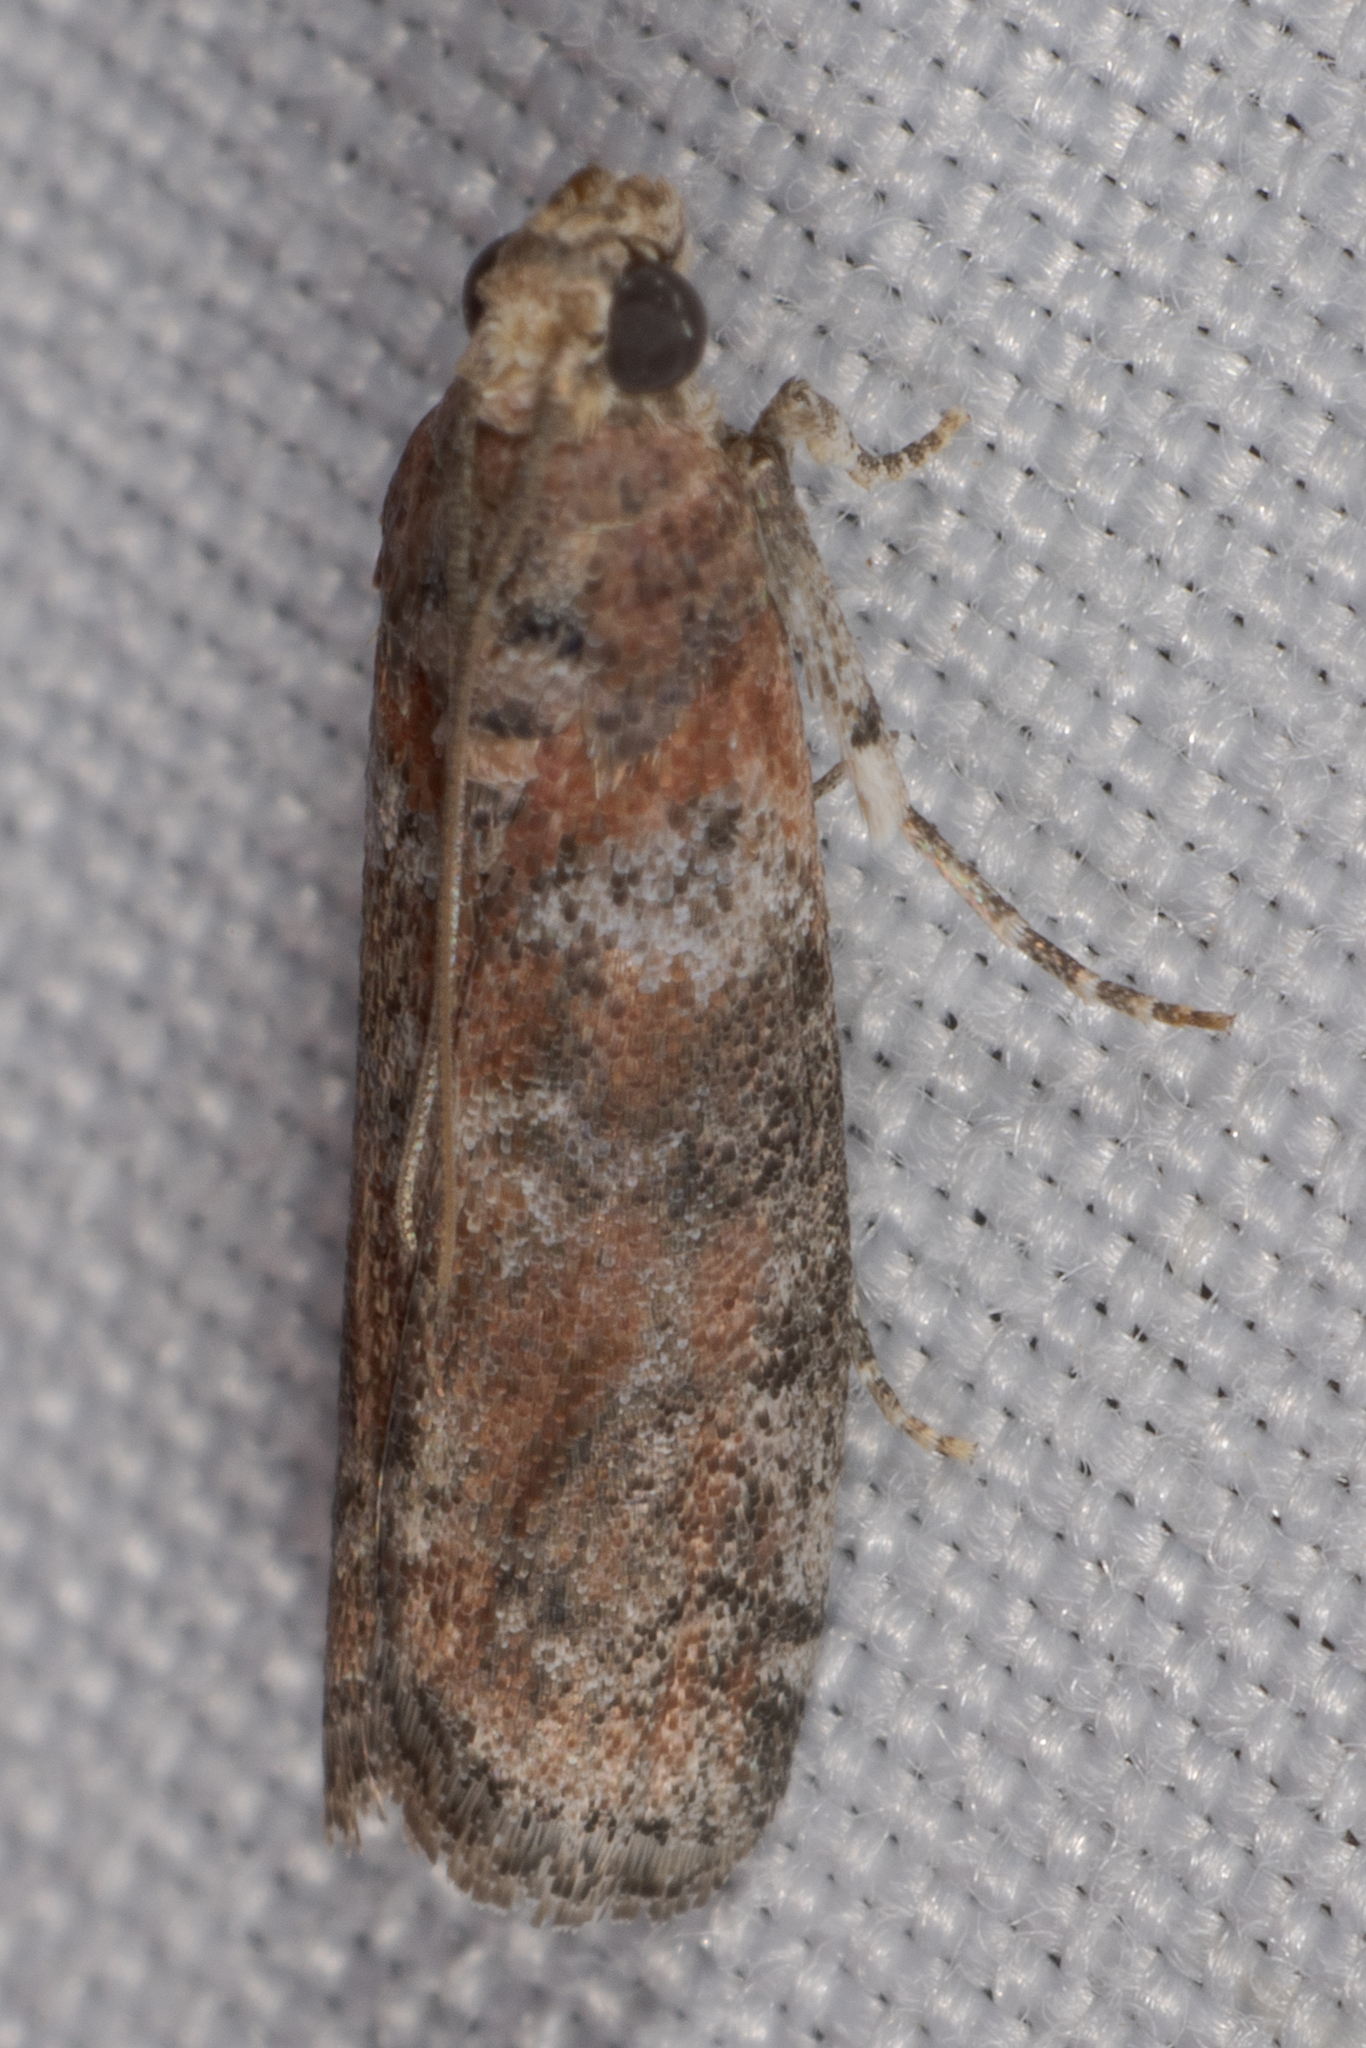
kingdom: Animalia
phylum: Arthropoda
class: Insecta
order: Lepidoptera
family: Pyralidae
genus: Sciota
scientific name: Sciota
